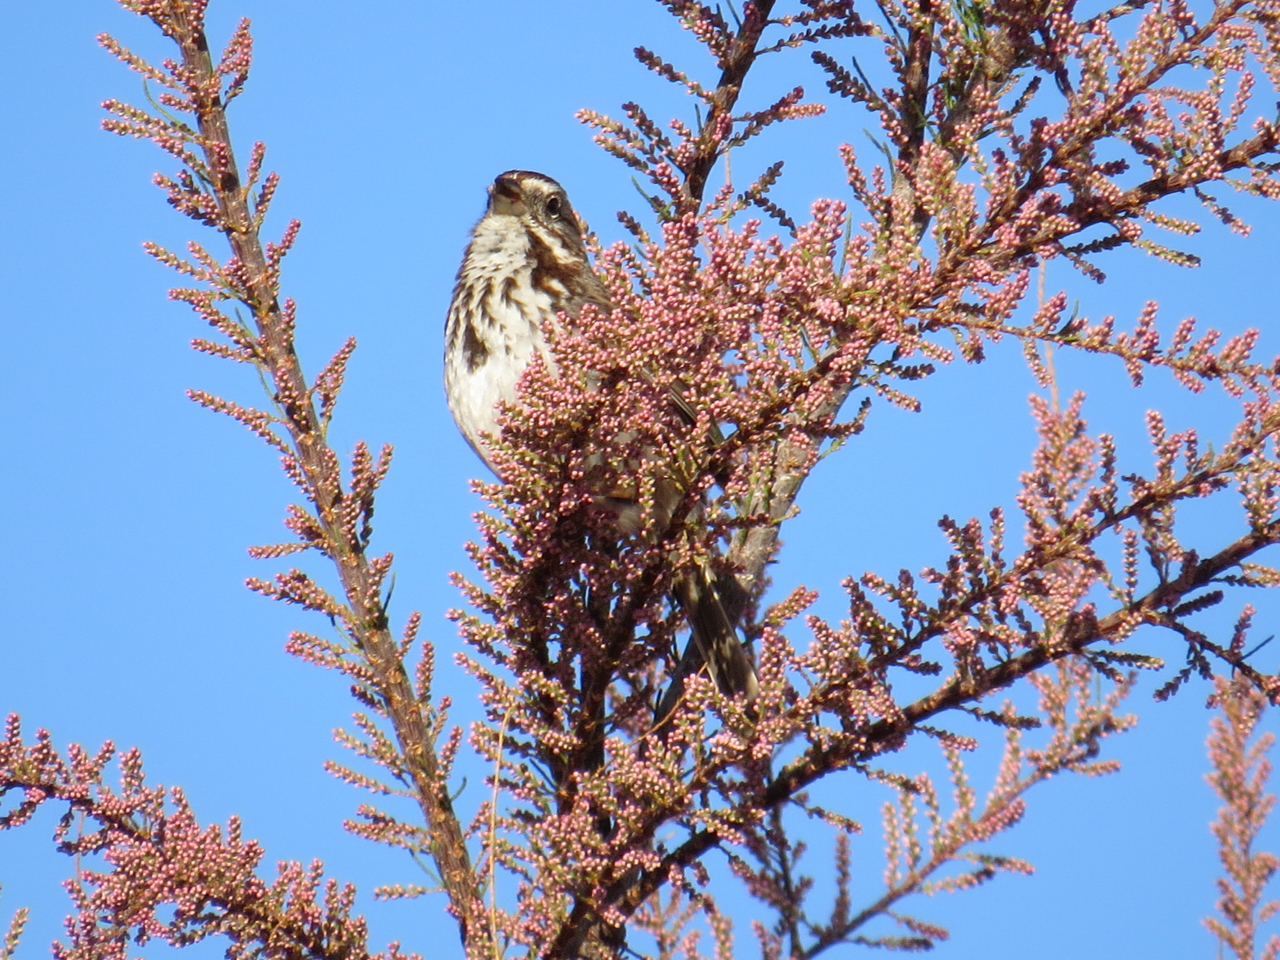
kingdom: Animalia
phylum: Chordata
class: Aves
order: Passeriformes
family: Passerellidae
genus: Melospiza
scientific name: Melospiza melodia
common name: Song sparrow
